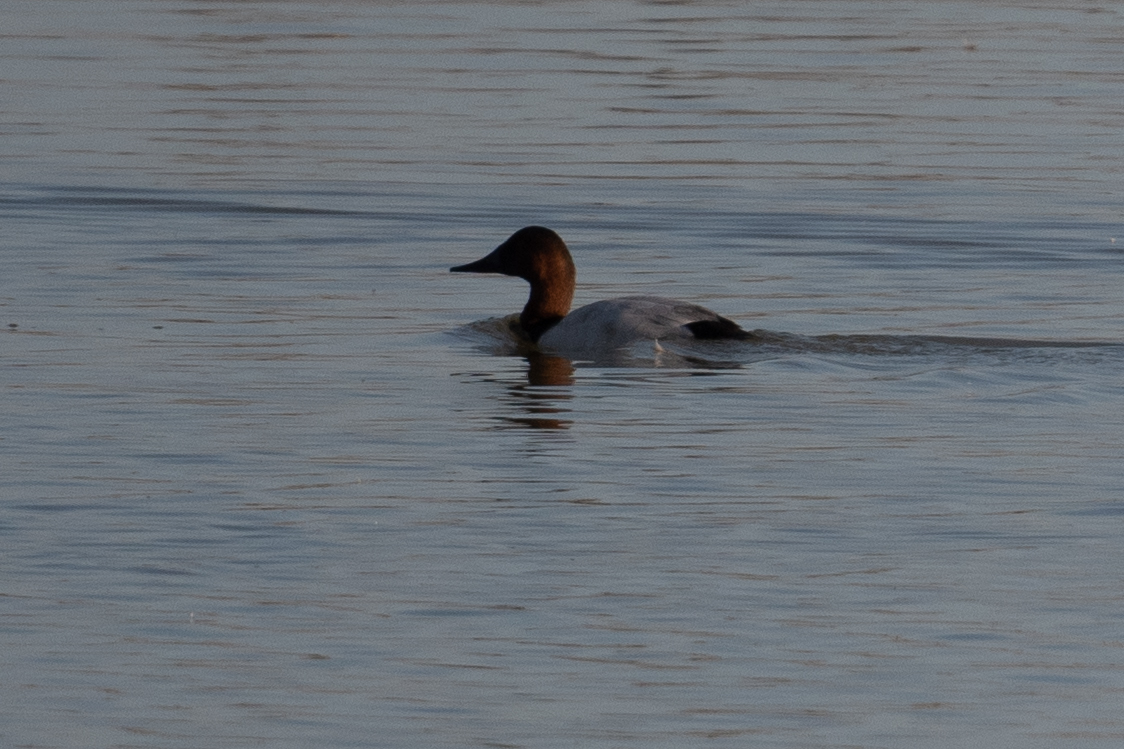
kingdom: Animalia
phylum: Chordata
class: Aves
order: Anseriformes
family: Anatidae
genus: Aythya
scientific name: Aythya valisineria
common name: Canvasback
